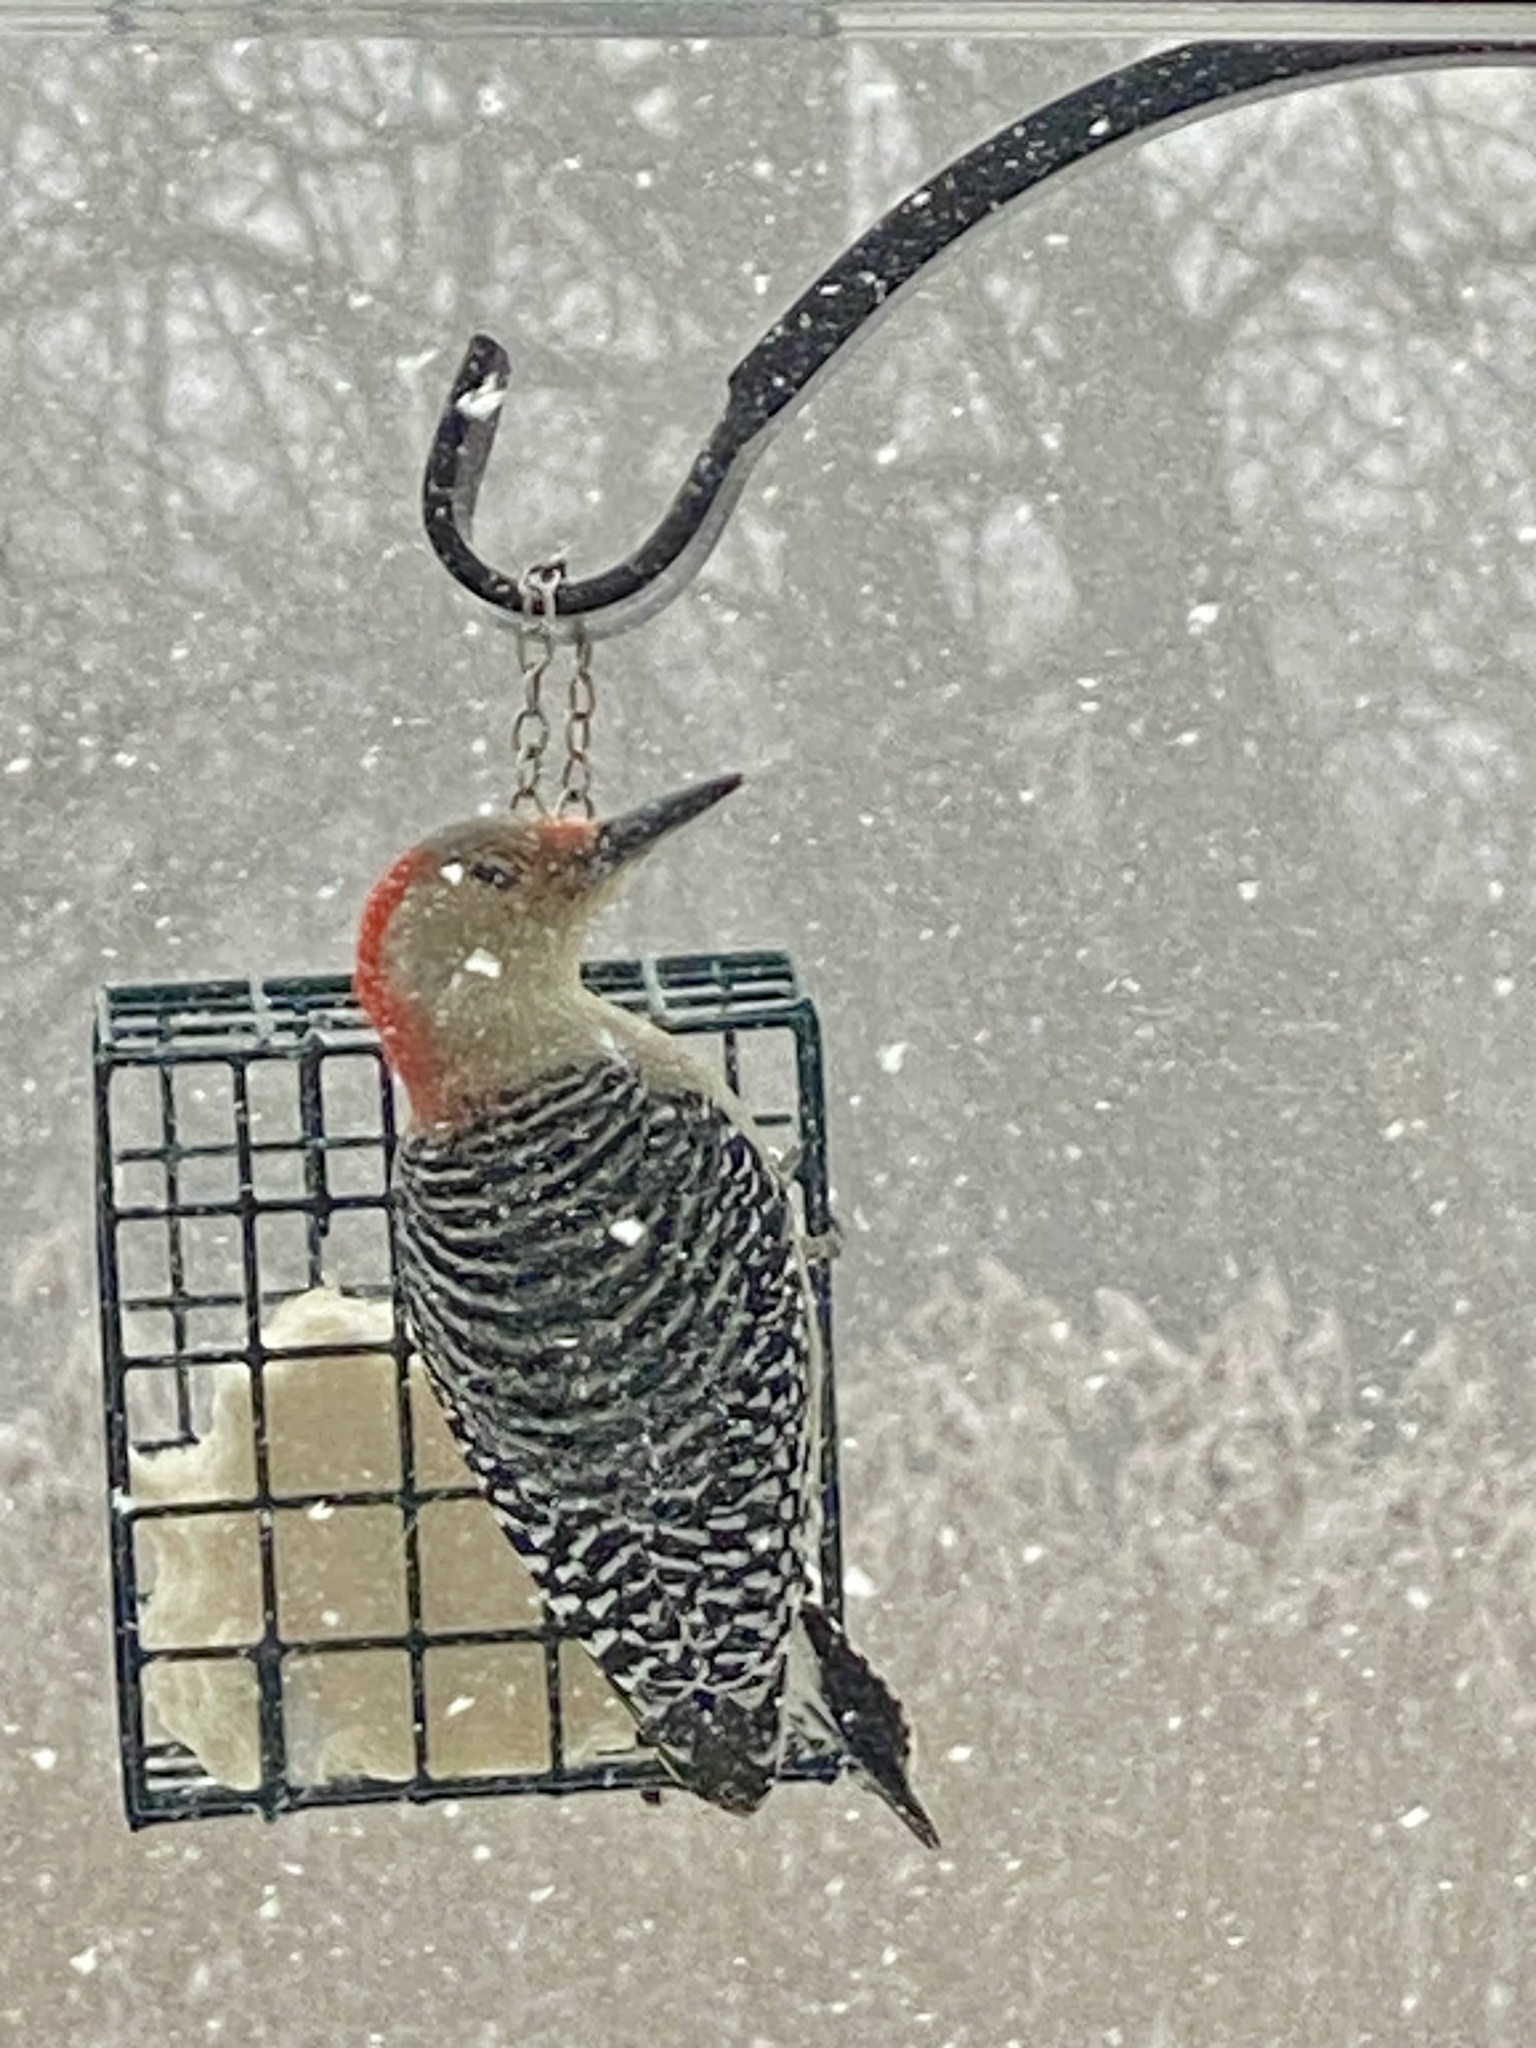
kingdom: Animalia
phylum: Chordata
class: Aves
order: Piciformes
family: Picidae
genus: Melanerpes
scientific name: Melanerpes carolinus
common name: Red-bellied woodpecker
